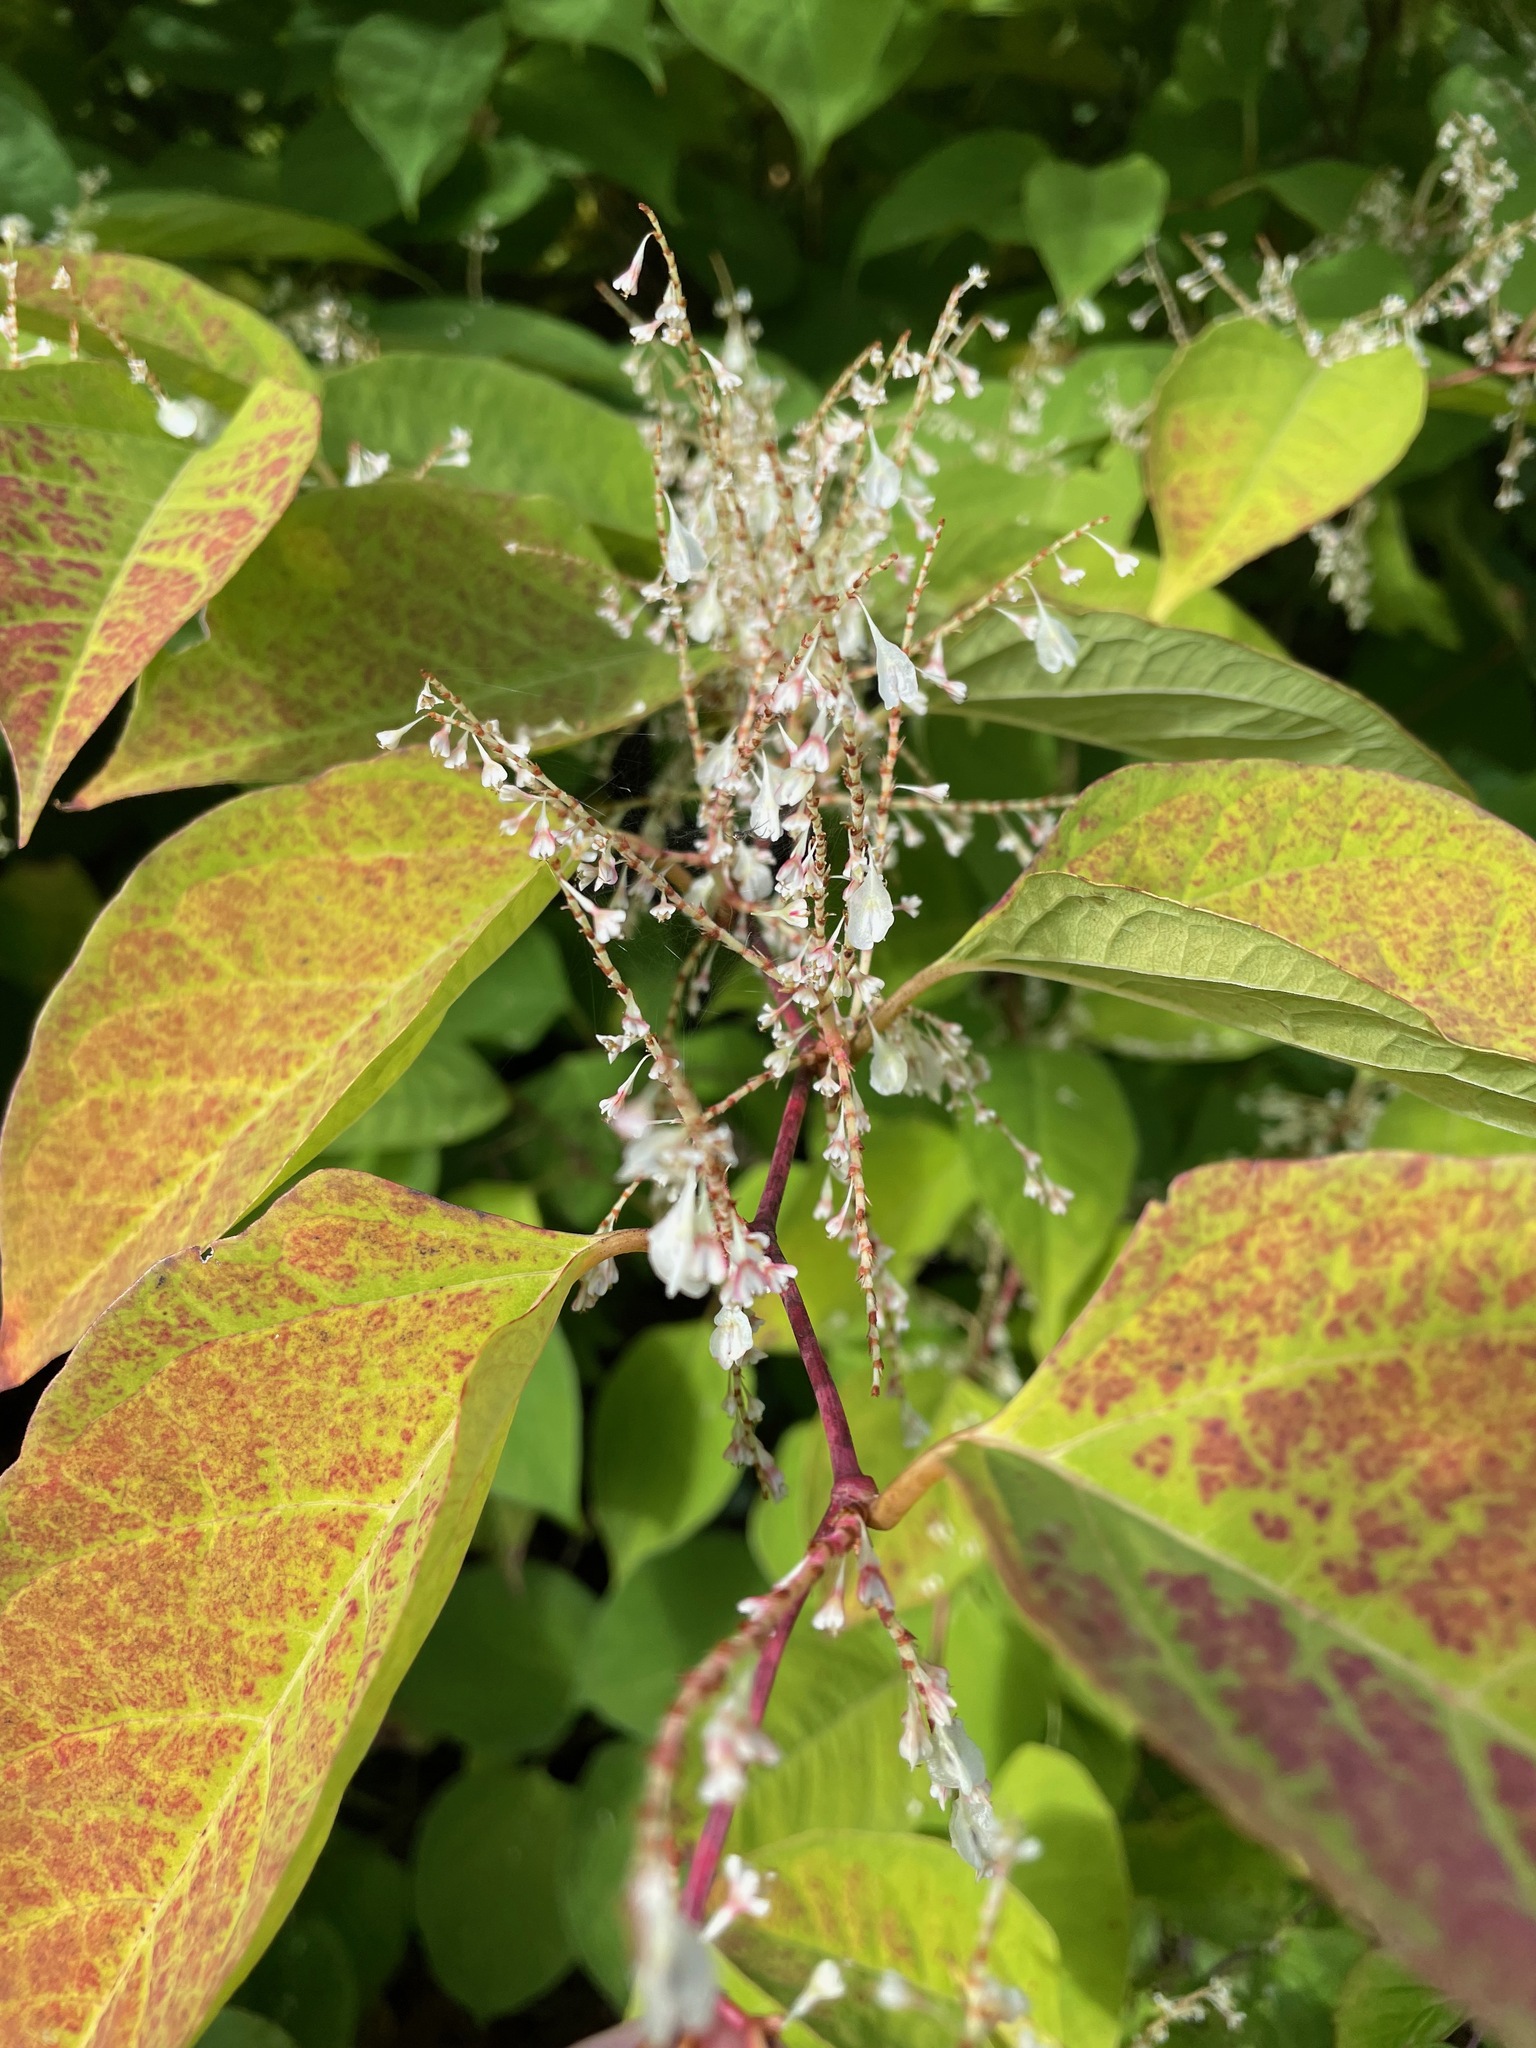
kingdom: Plantae
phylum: Tracheophyta
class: Magnoliopsida
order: Caryophyllales
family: Polygonaceae
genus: Reynoutria
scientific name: Reynoutria japonica
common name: Japanese knotweed
